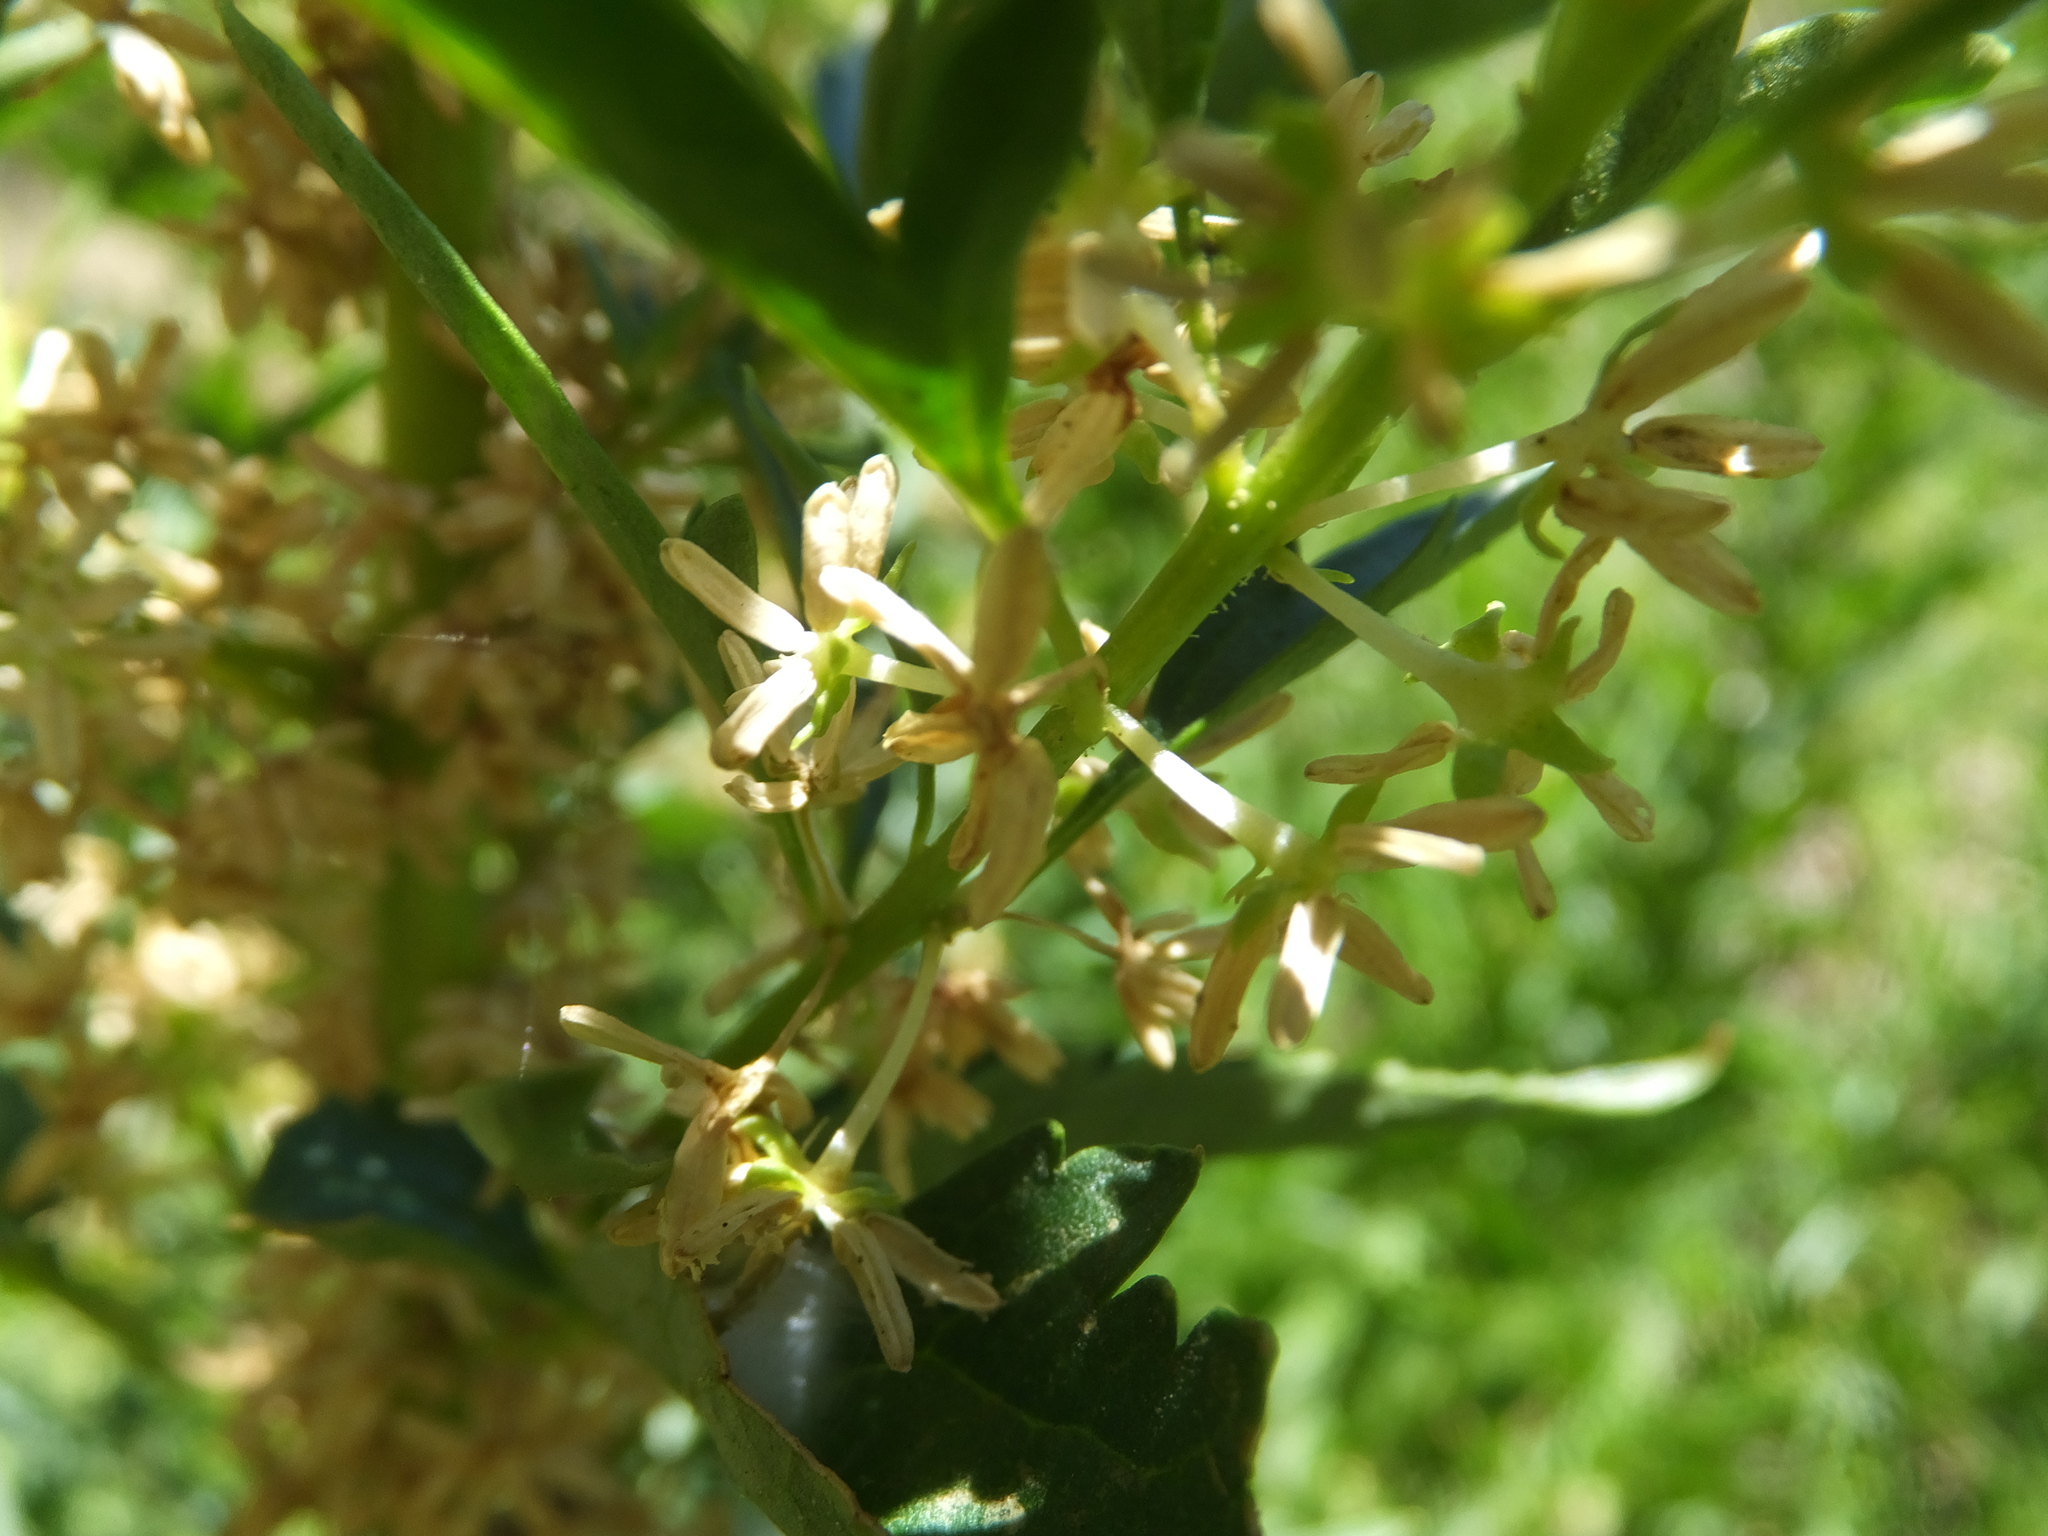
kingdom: Plantae
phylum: Tracheophyta
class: Magnoliopsida
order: Cucurbitales
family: Datiscaceae
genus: Datisca
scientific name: Datisca glomerata
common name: Durango-root
